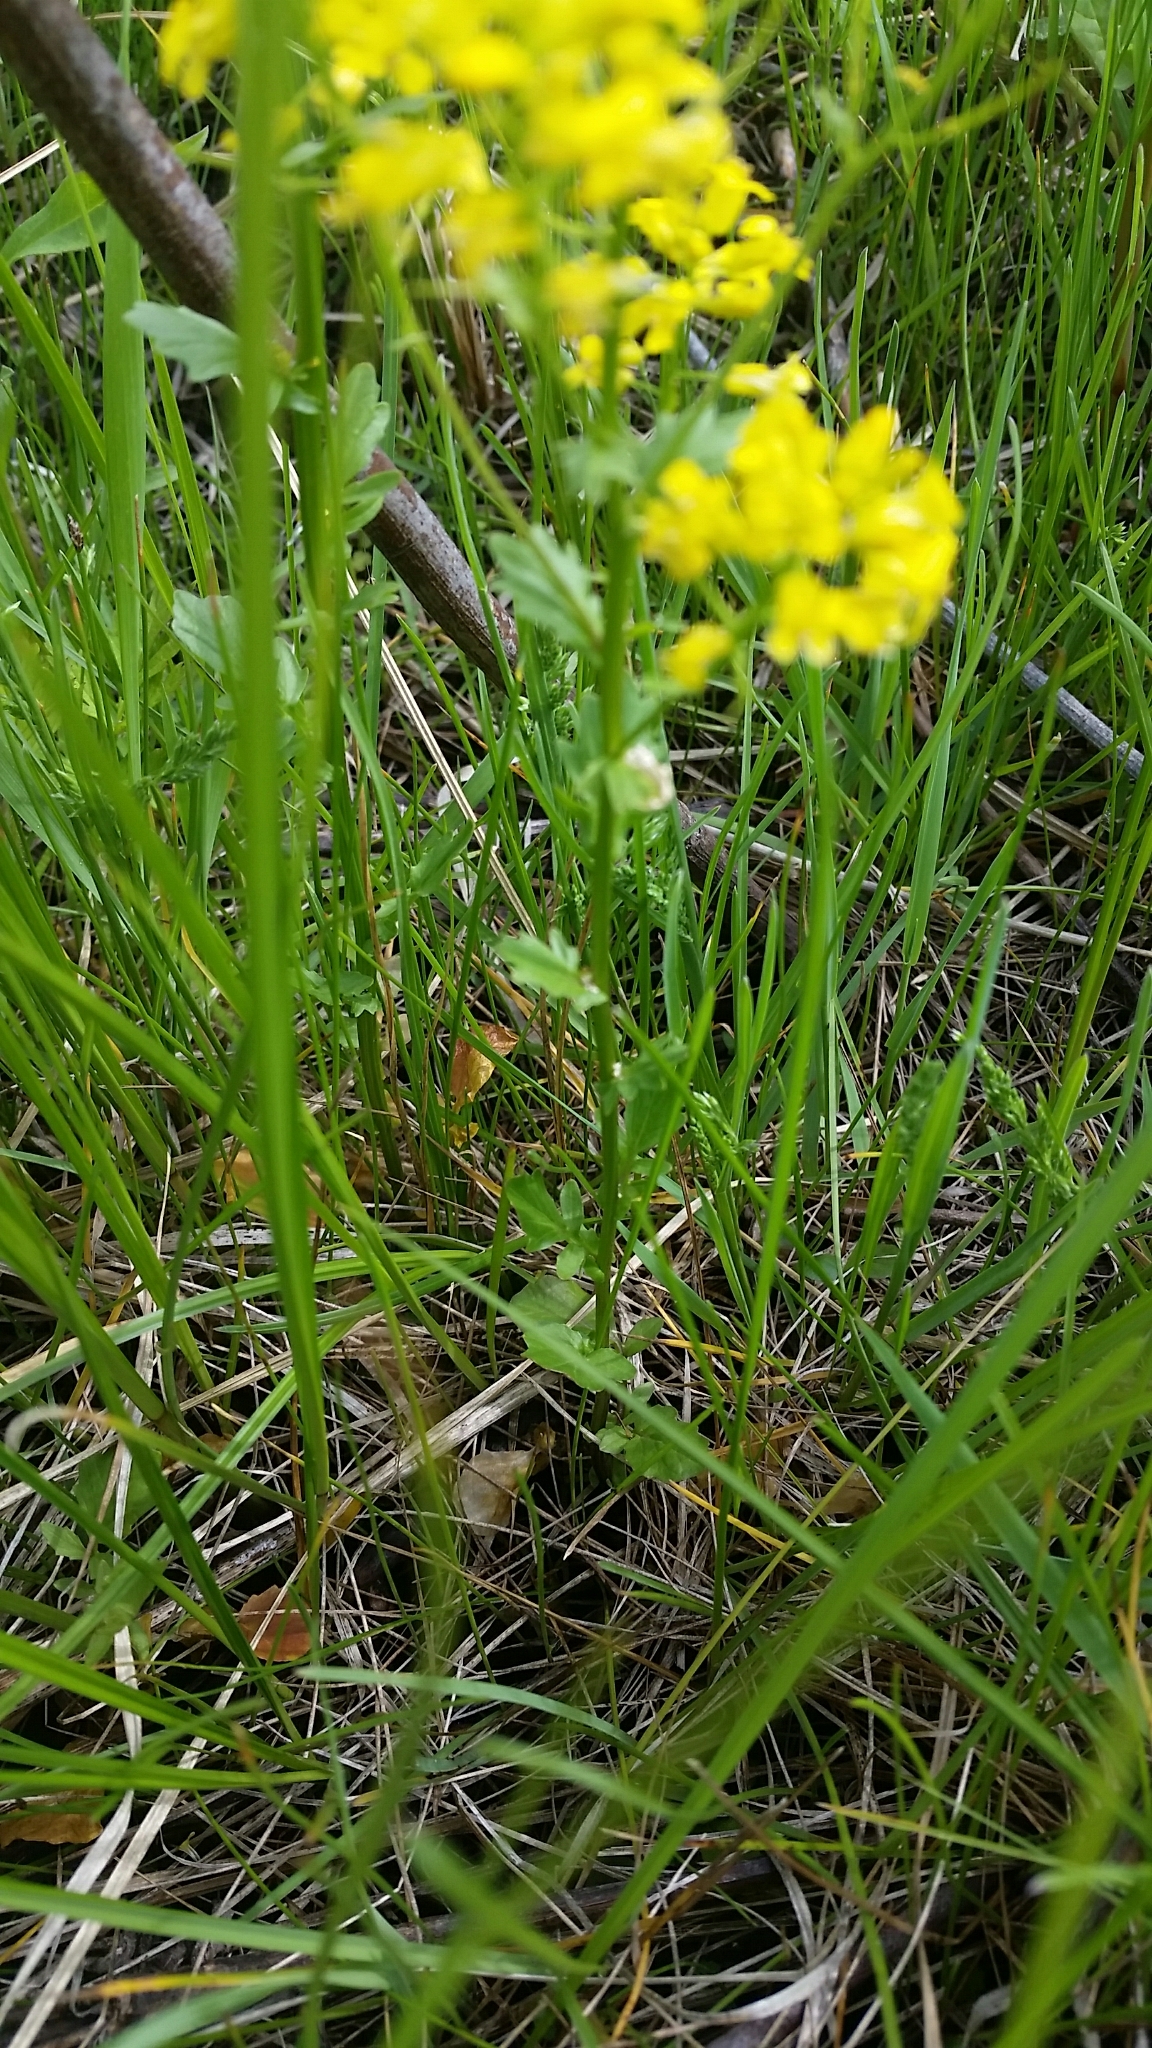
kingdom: Plantae
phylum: Tracheophyta
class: Magnoliopsida
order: Brassicales
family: Brassicaceae
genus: Barbarea
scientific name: Barbarea vulgaris
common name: Cressy-greens
